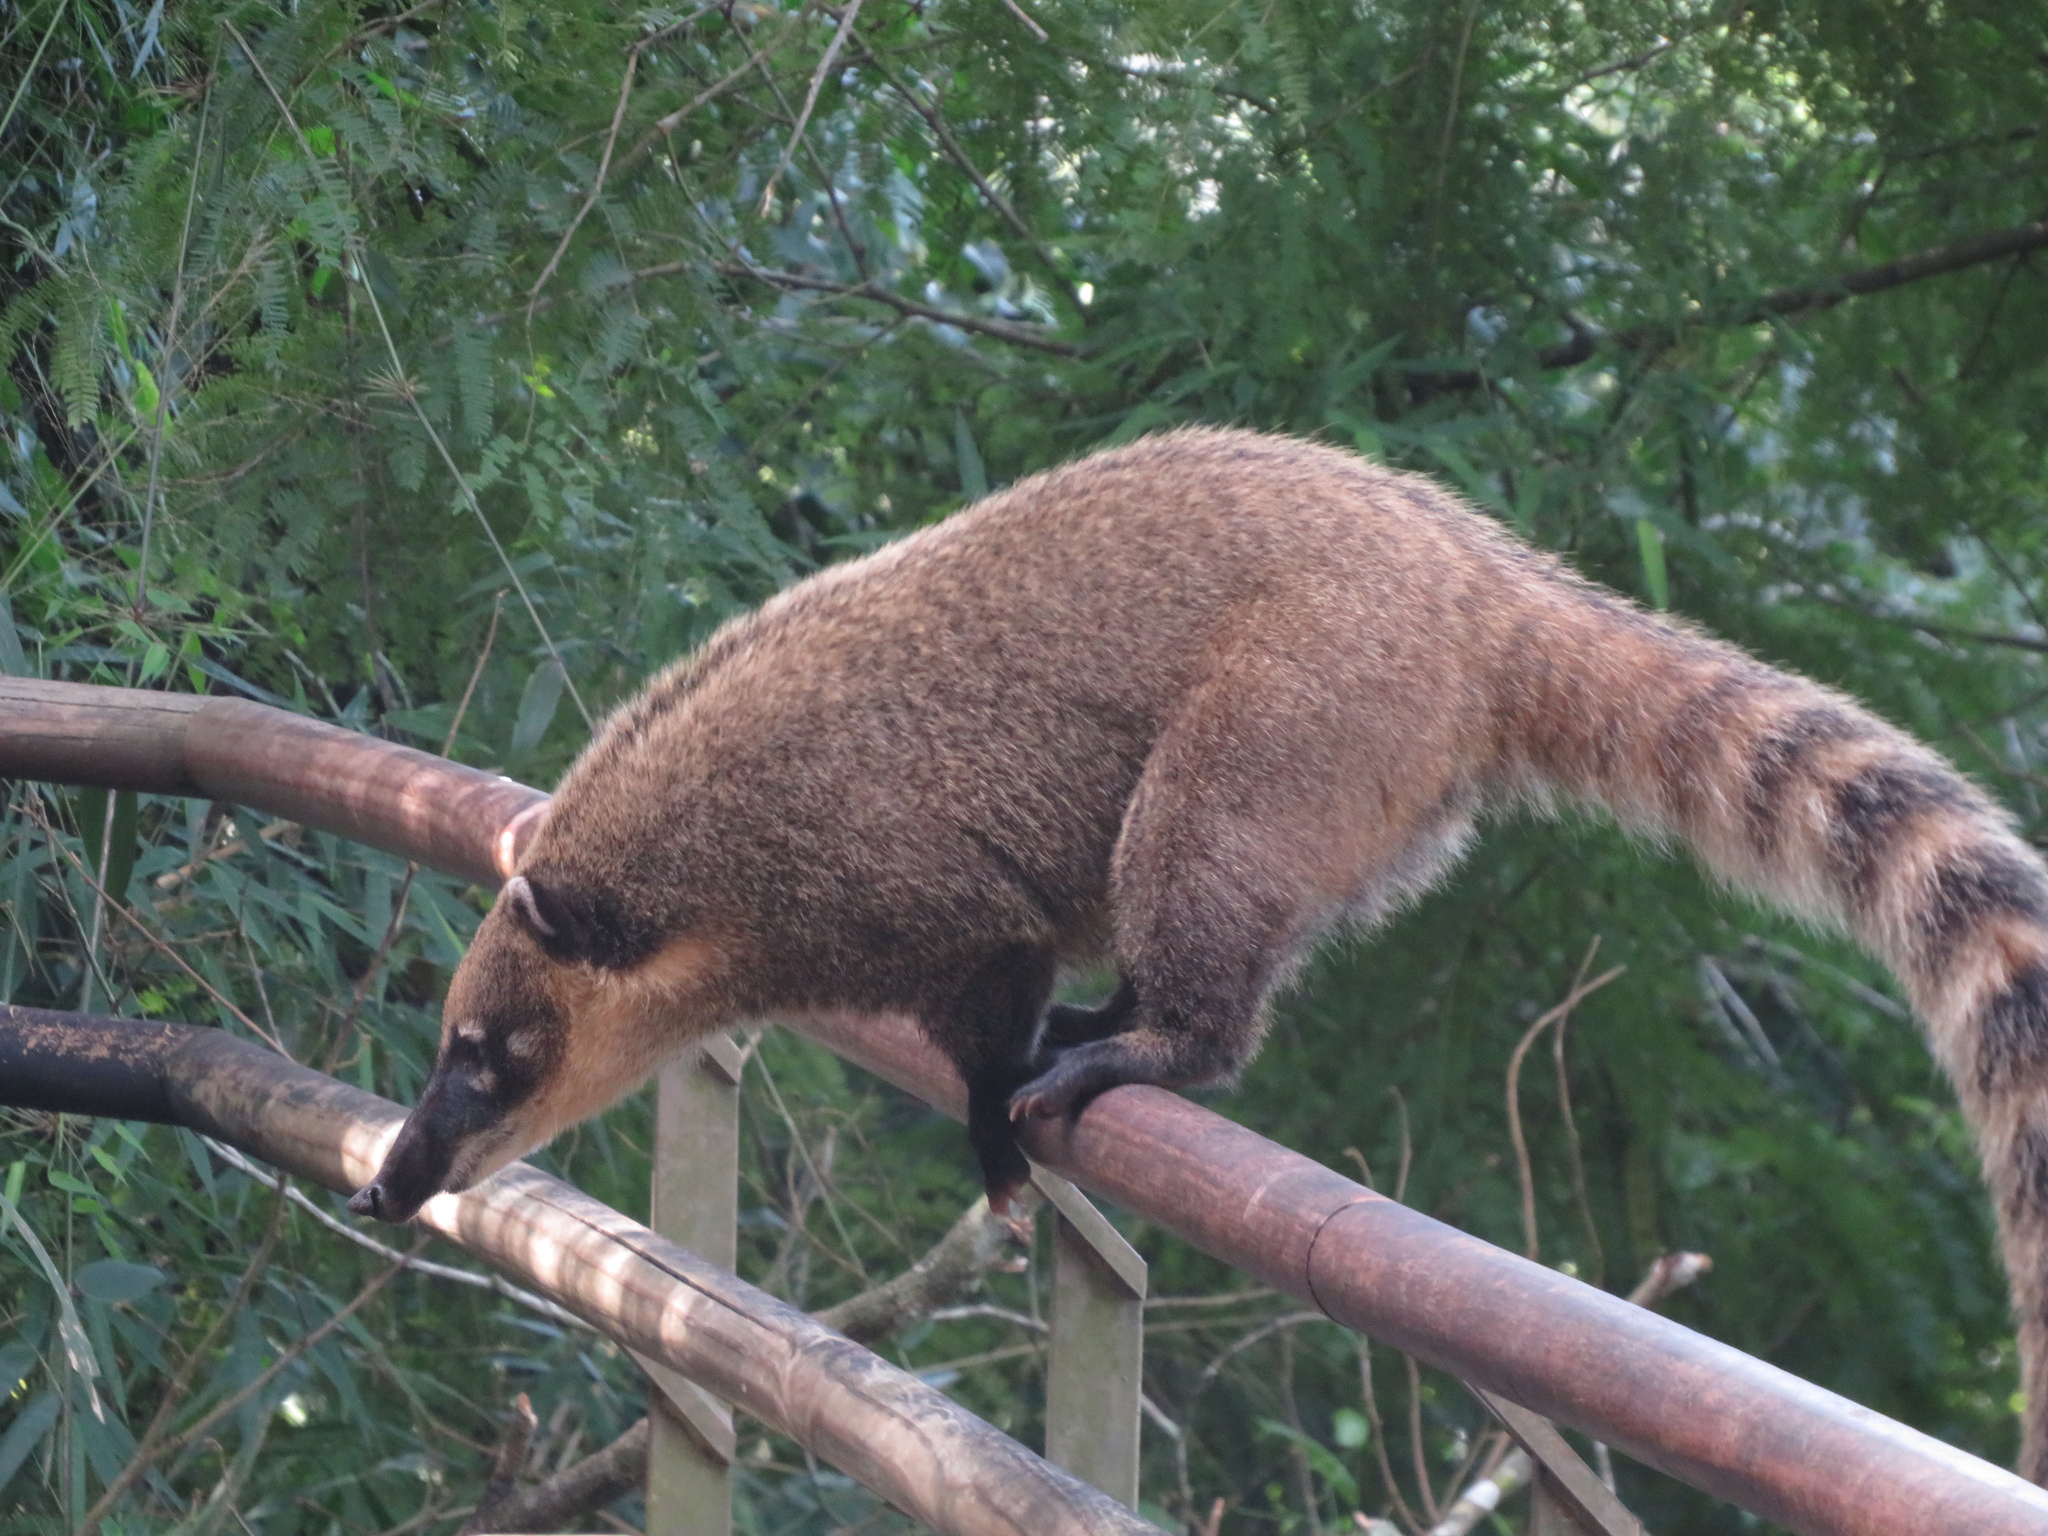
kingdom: Animalia
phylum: Chordata
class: Mammalia
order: Carnivora
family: Procyonidae
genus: Nasua
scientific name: Nasua nasua
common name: South american coati
